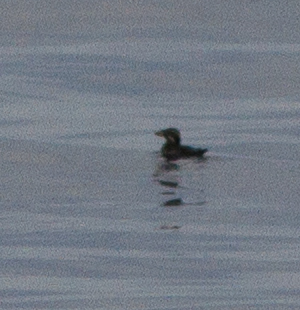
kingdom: Animalia
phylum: Chordata
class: Aves
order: Charadriiformes
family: Alcidae
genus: Cerorhinca
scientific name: Cerorhinca monocerata
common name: Rhinoceros auklet
